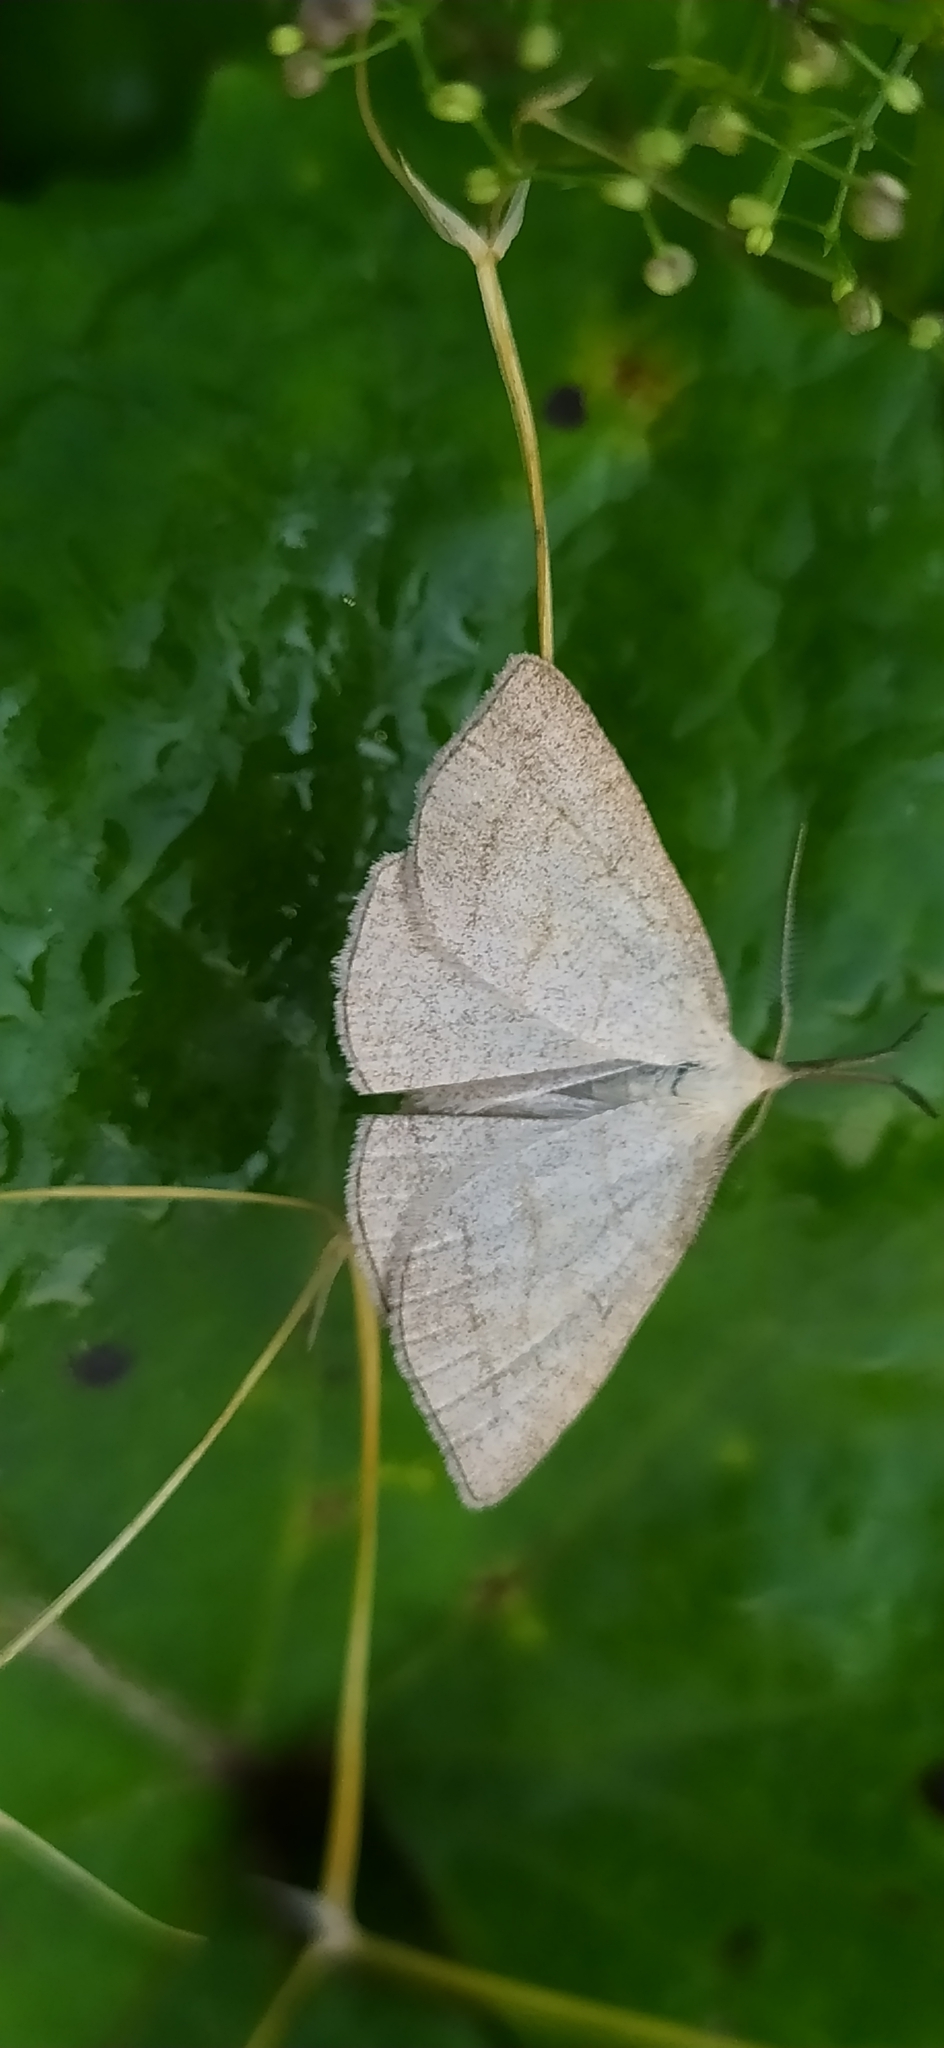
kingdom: Animalia
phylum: Arthropoda
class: Insecta
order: Lepidoptera
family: Erebidae
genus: Polypogon
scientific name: Polypogon tentacularia
